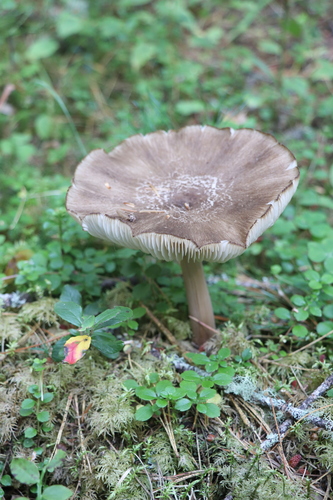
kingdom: Fungi
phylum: Basidiomycota
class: Agaricomycetes
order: Agaricales
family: Tricholomataceae
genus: Megacollybia
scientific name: Megacollybia platyphylla
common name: Whitelaced shank
